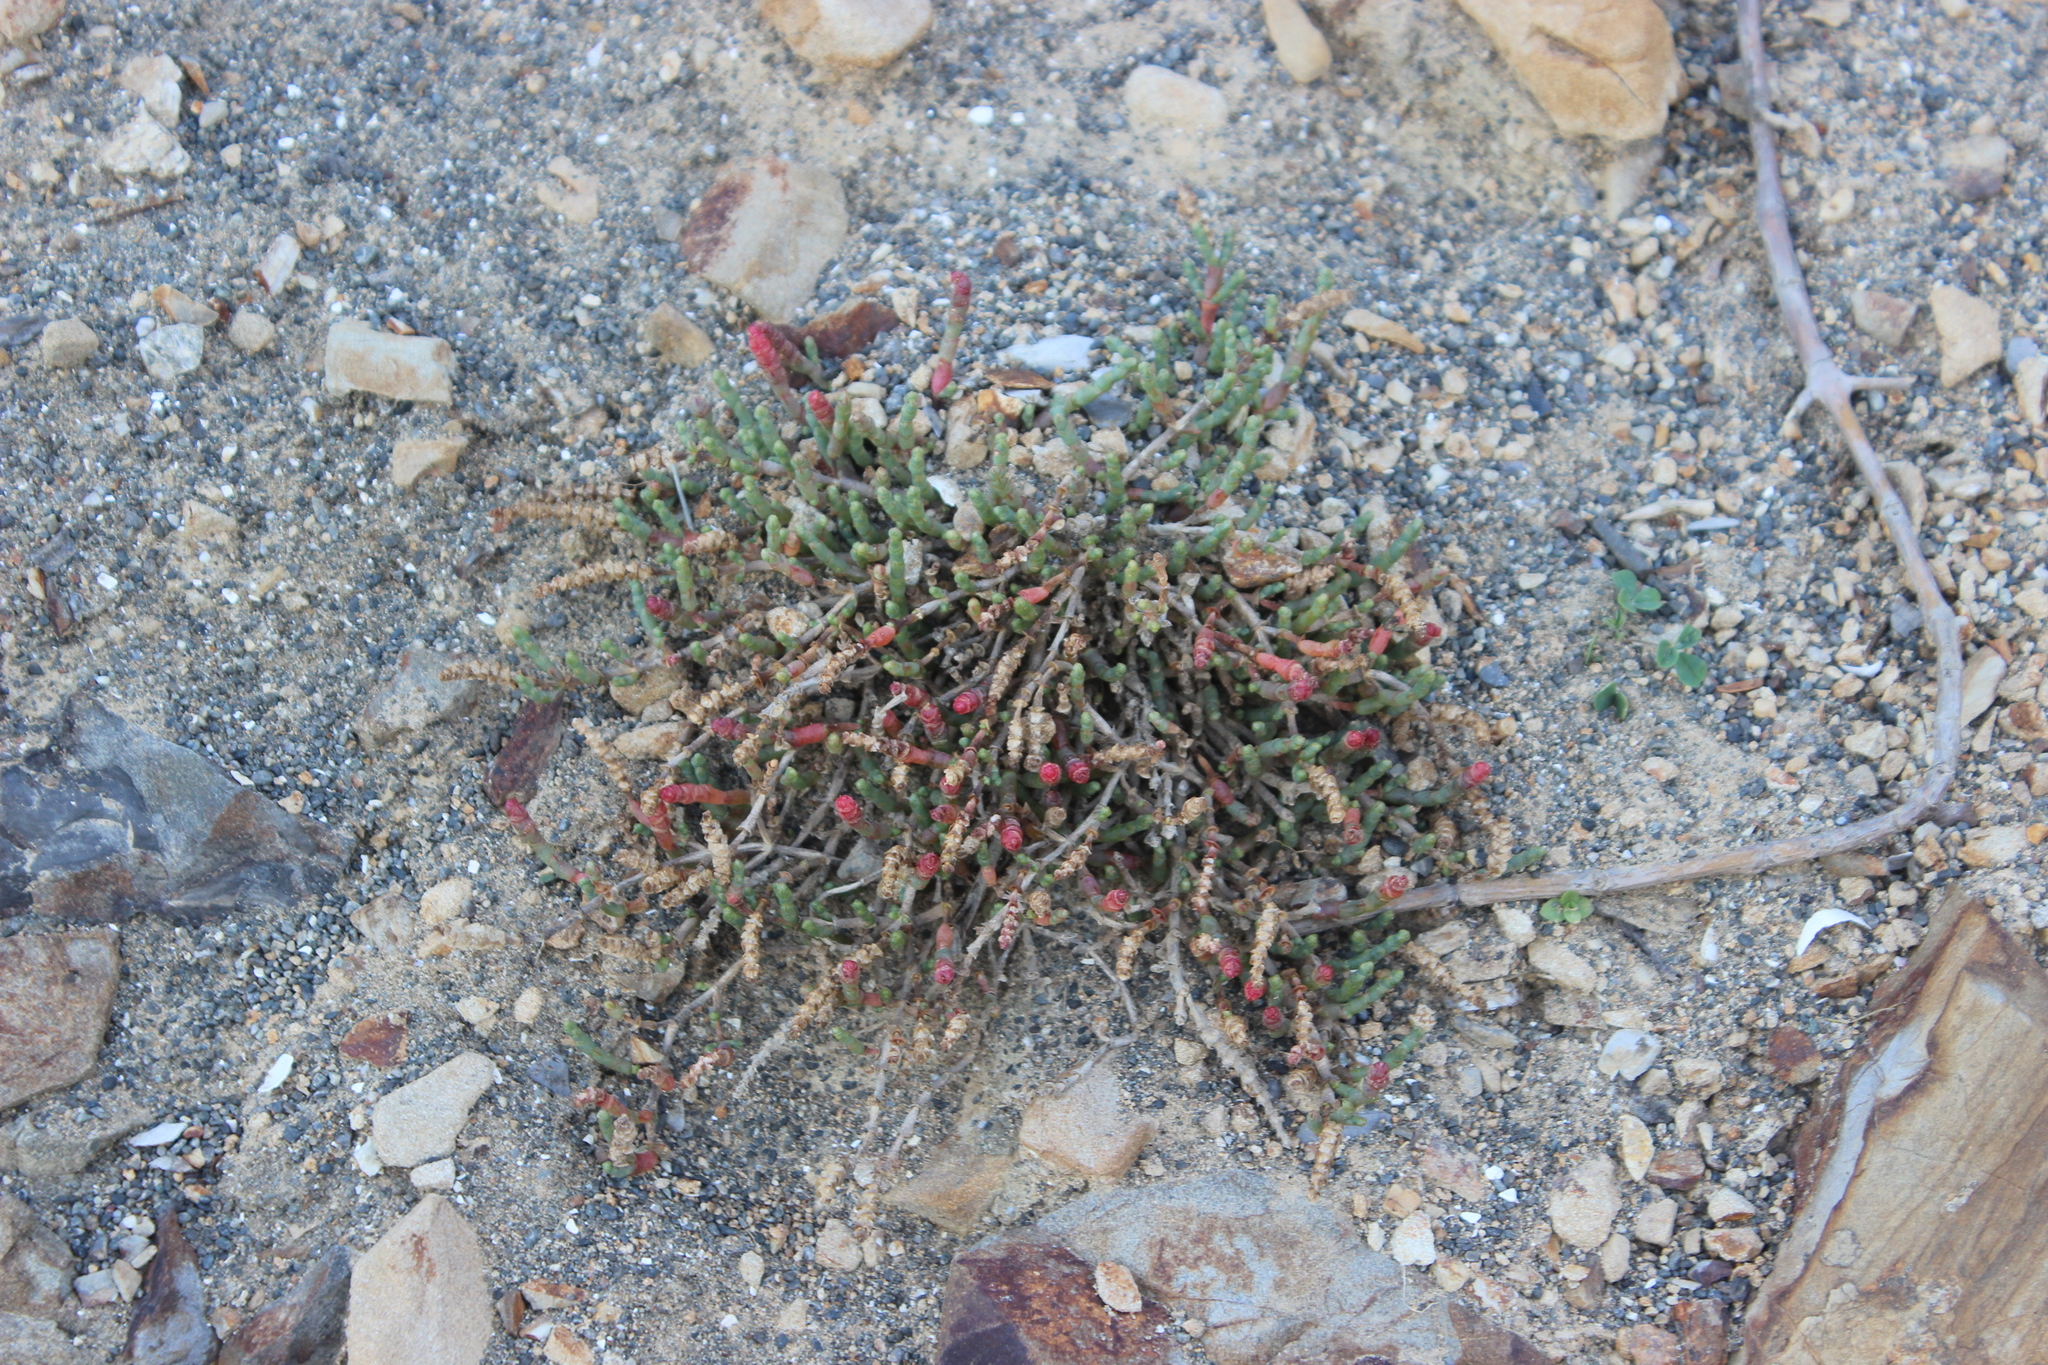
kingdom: Plantae
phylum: Tracheophyta
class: Magnoliopsida
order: Caryophyllales
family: Amaranthaceae
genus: Salicornia
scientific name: Salicornia quinqueflora
